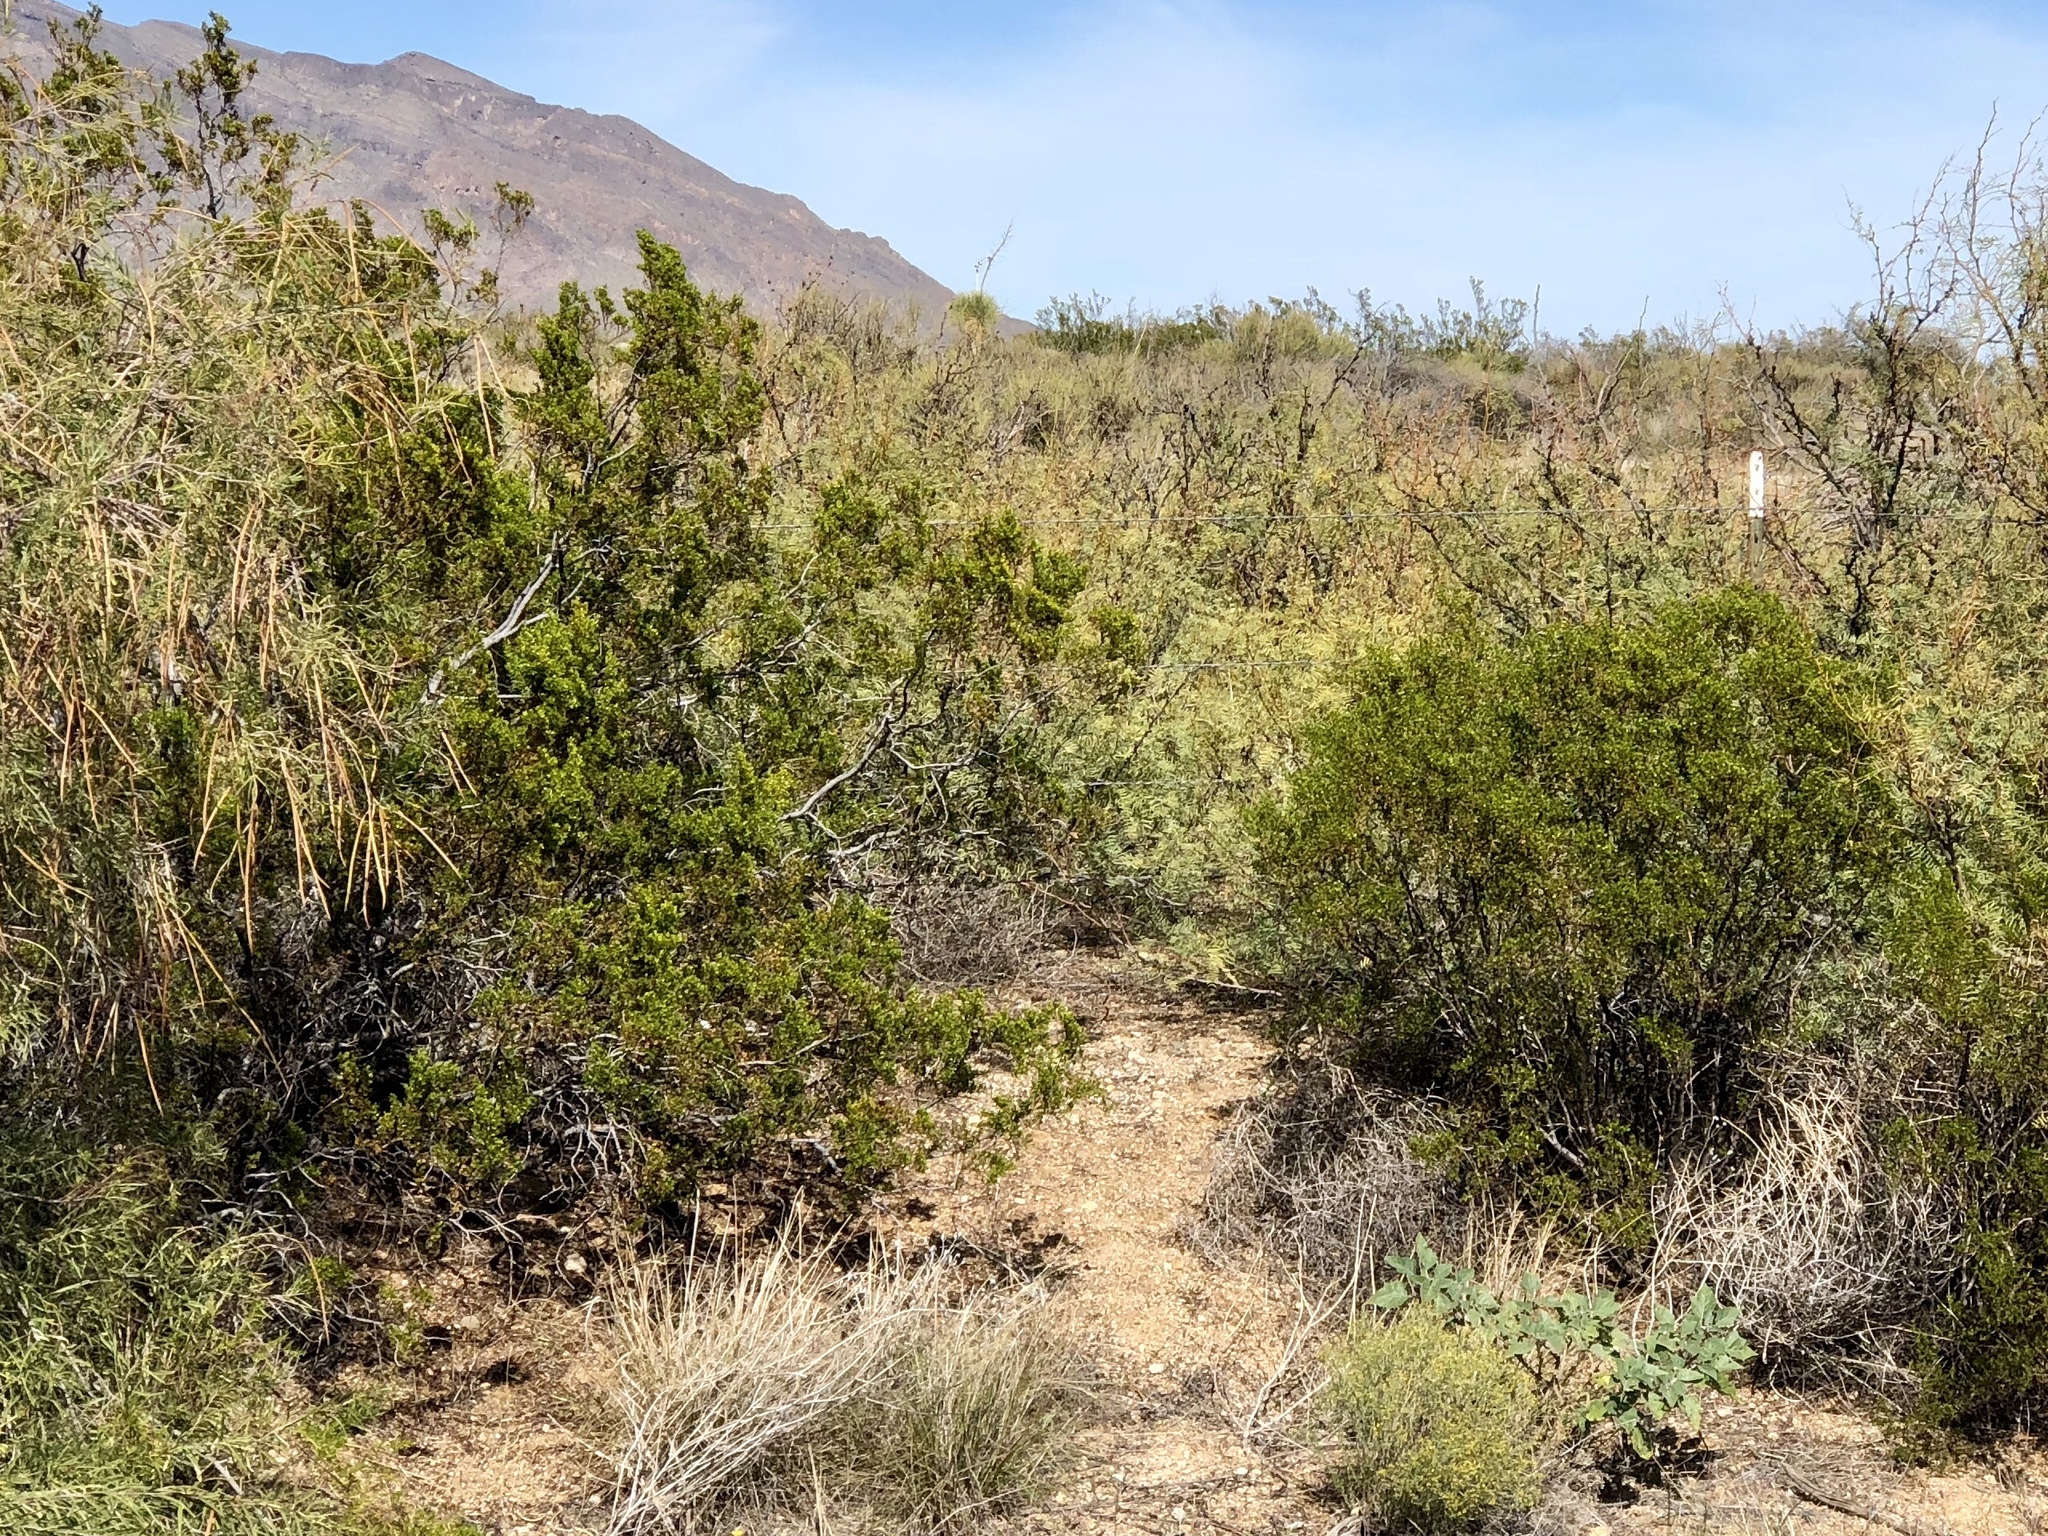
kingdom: Plantae
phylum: Tracheophyta
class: Magnoliopsida
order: Zygophyllales
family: Zygophyllaceae
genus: Larrea
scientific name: Larrea tridentata
